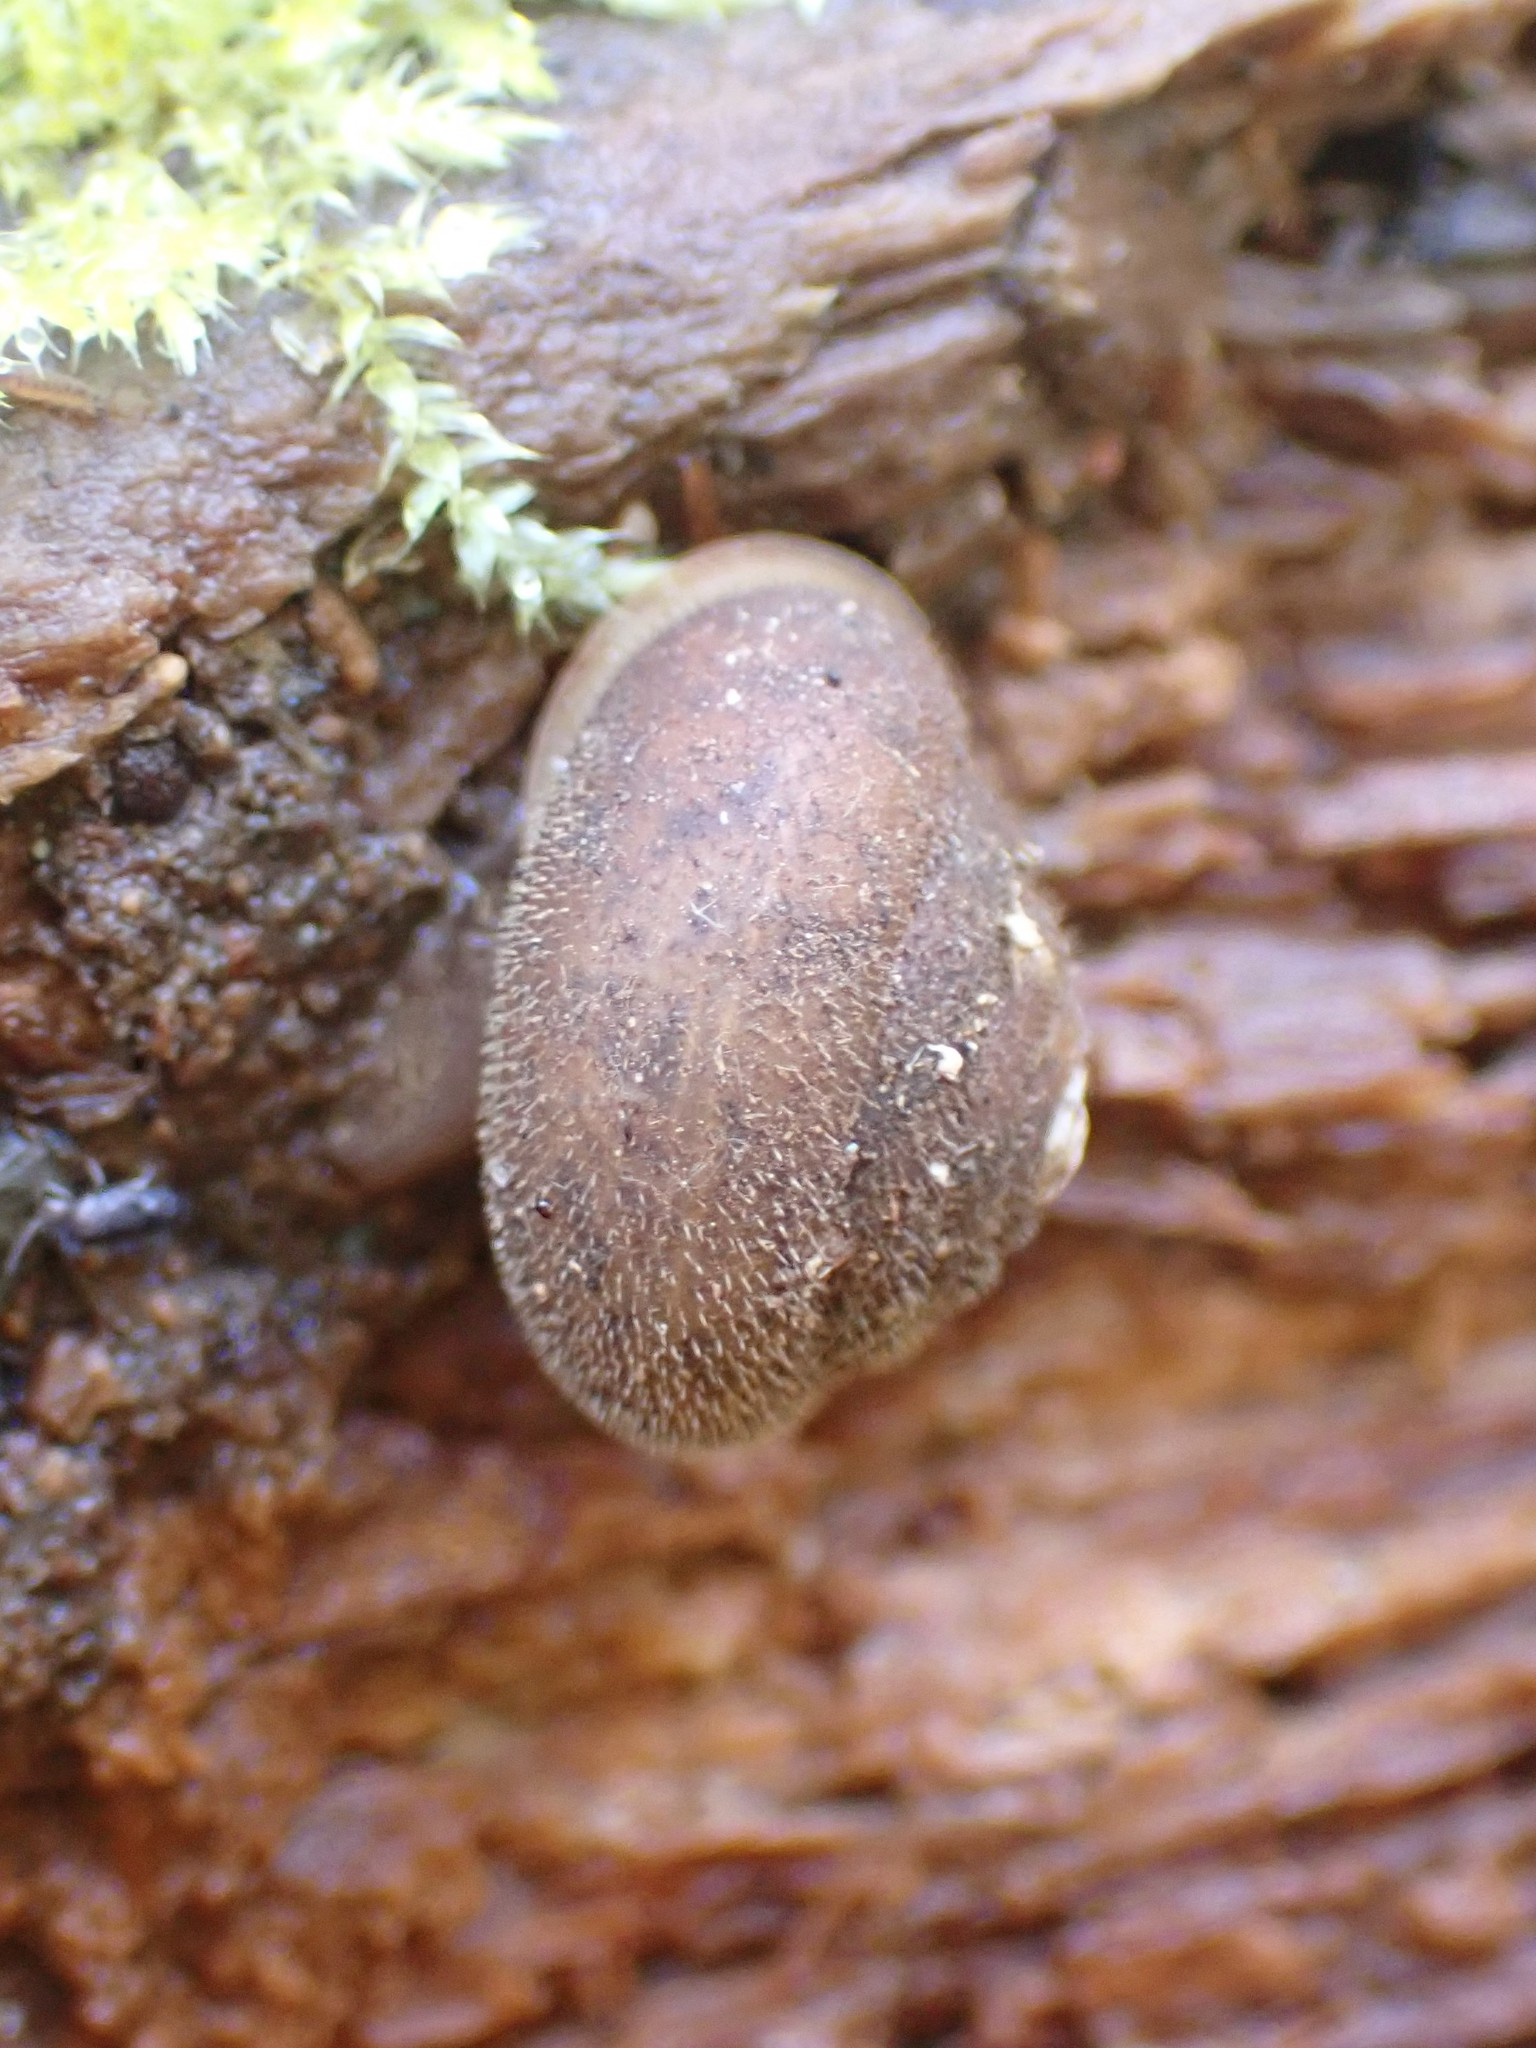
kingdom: Animalia
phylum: Mollusca
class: Gastropoda
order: Stylommatophora
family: Polygyridae
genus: Vespericola
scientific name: Vespericola columbianus
